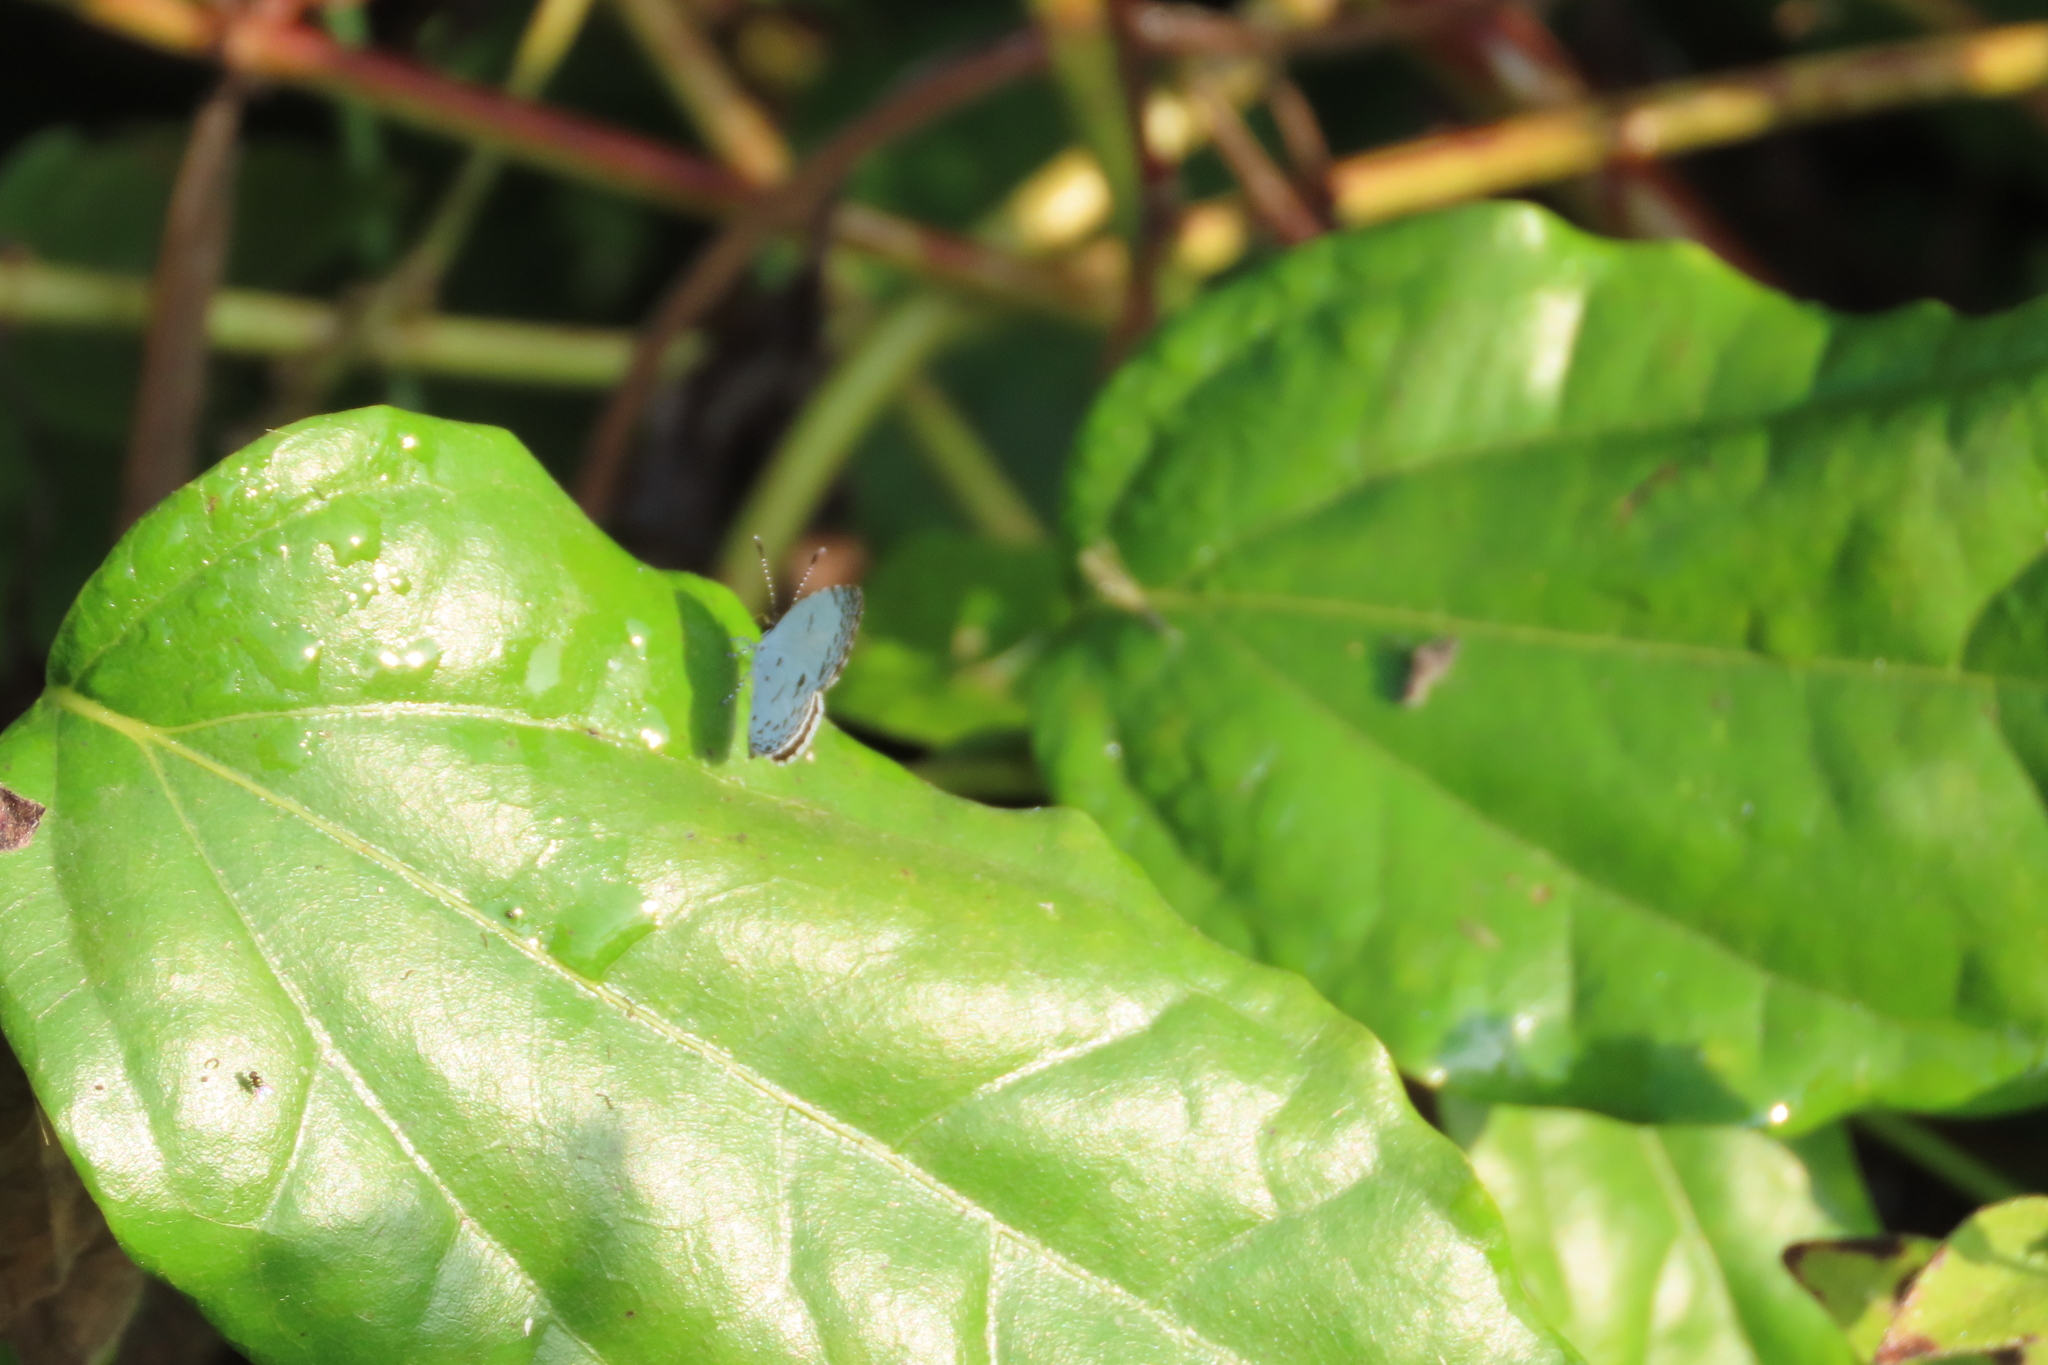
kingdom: Animalia
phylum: Arthropoda
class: Insecta
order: Lepidoptera
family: Lycaenidae
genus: Neopithecops
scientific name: Neopithecops zalmora
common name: Quaker
